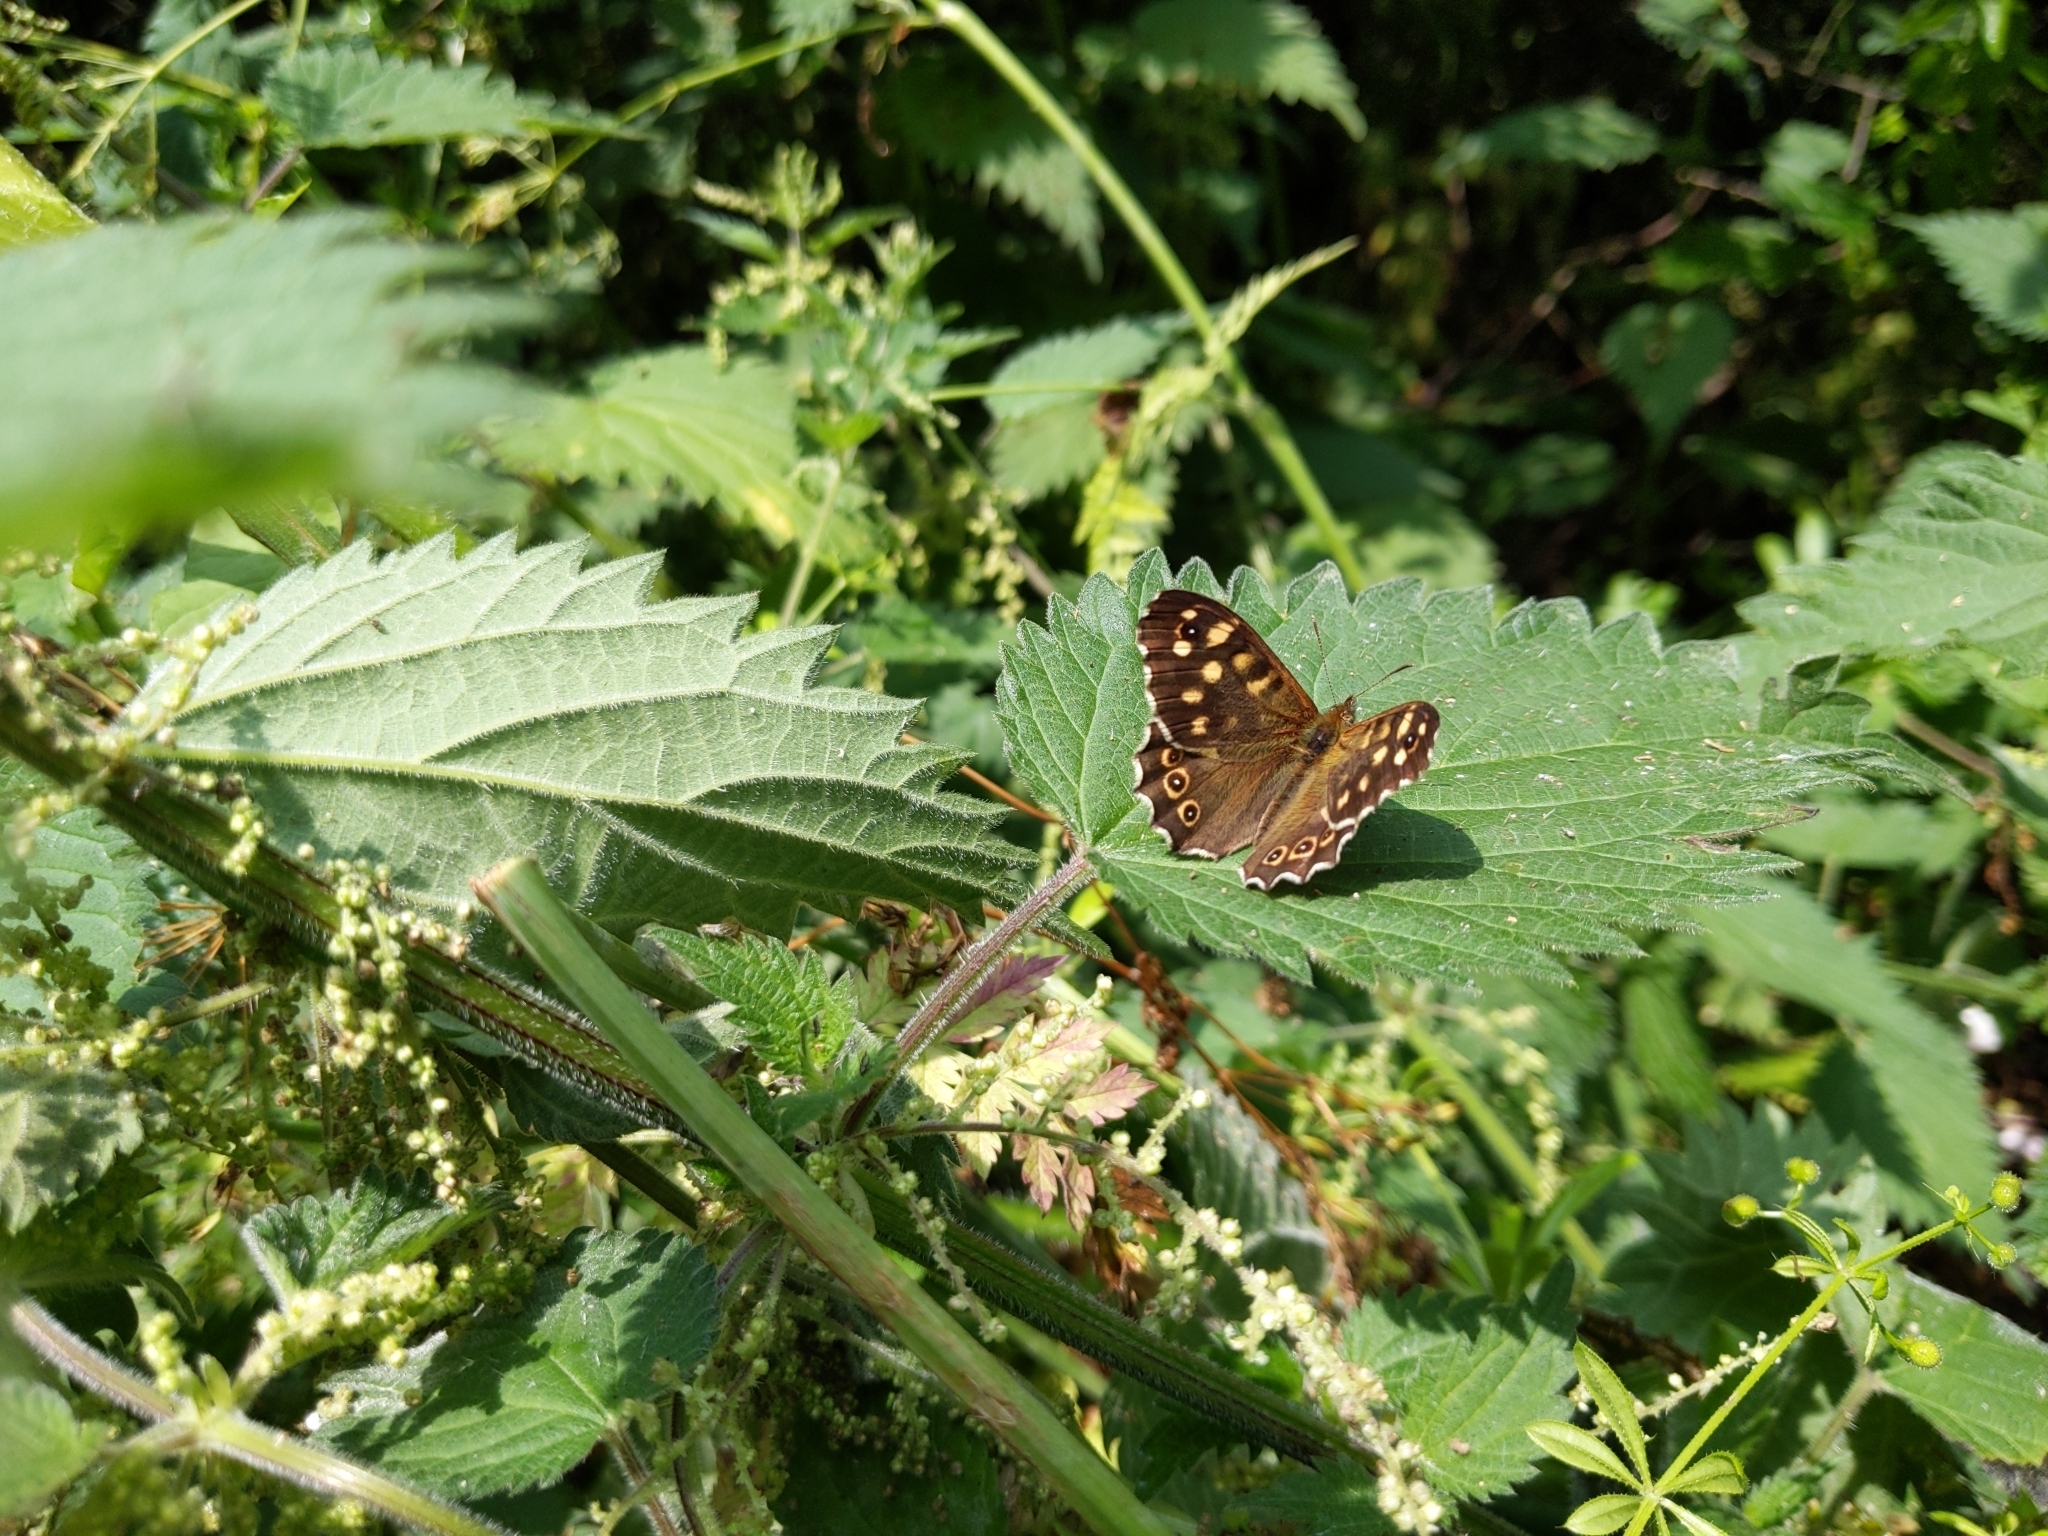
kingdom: Animalia
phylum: Arthropoda
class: Insecta
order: Lepidoptera
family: Nymphalidae
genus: Pararge
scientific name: Pararge aegeria
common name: Speckled wood
